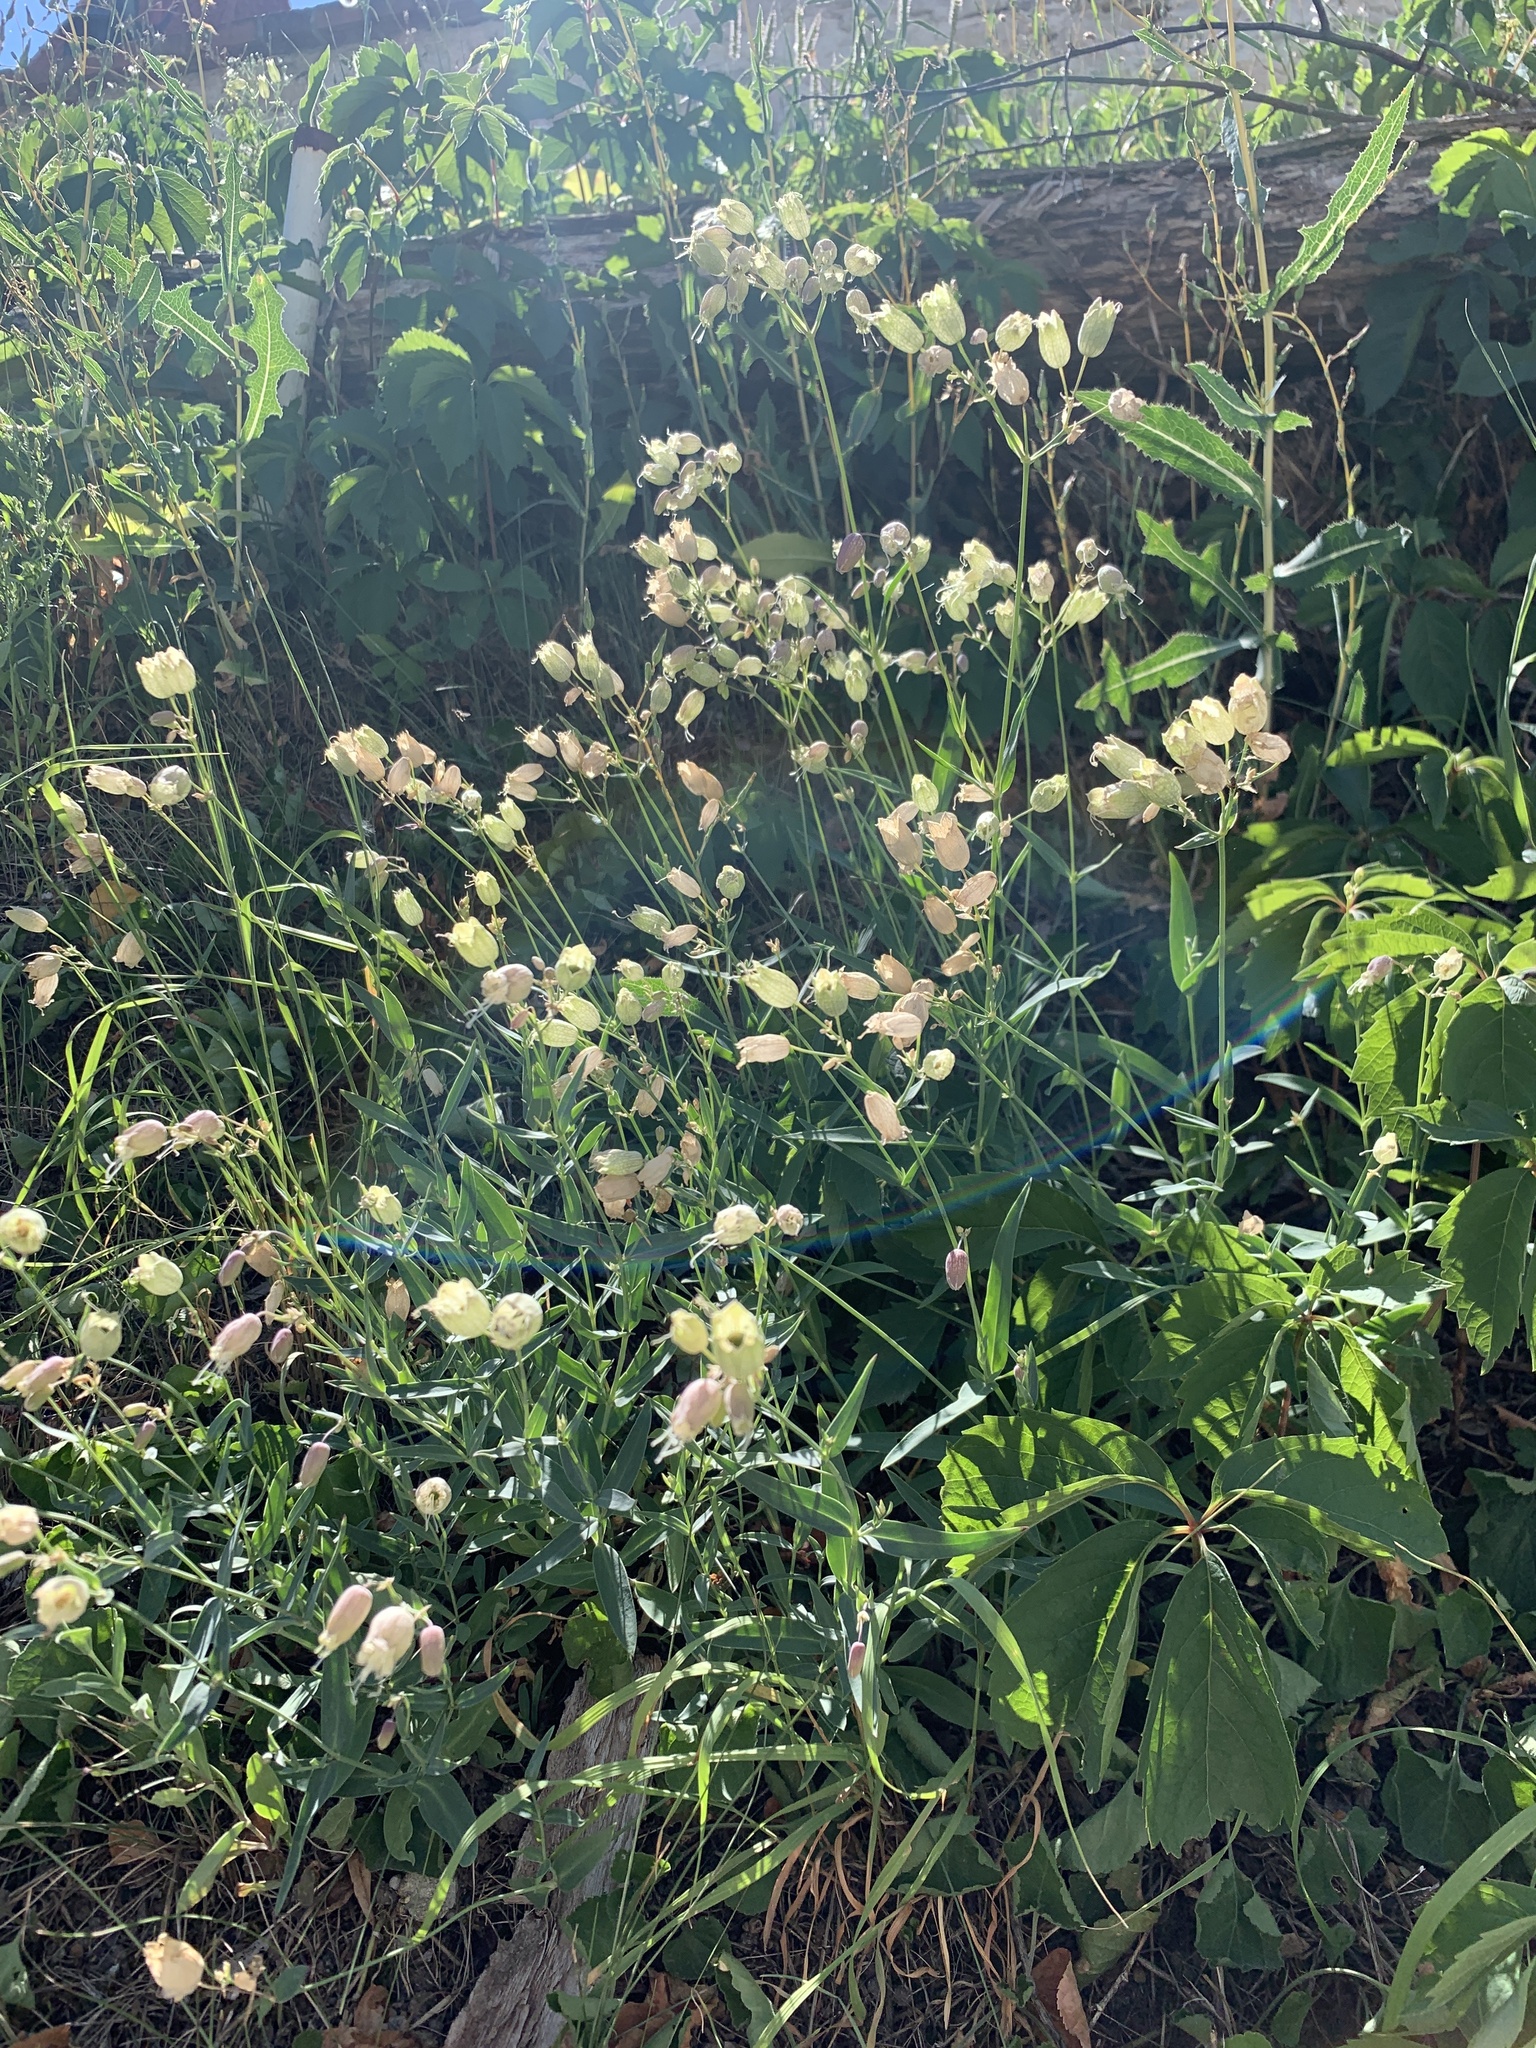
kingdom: Plantae
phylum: Tracheophyta
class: Magnoliopsida
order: Caryophyllales
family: Caryophyllaceae
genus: Silene
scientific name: Silene vulgaris
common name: Bladder campion
